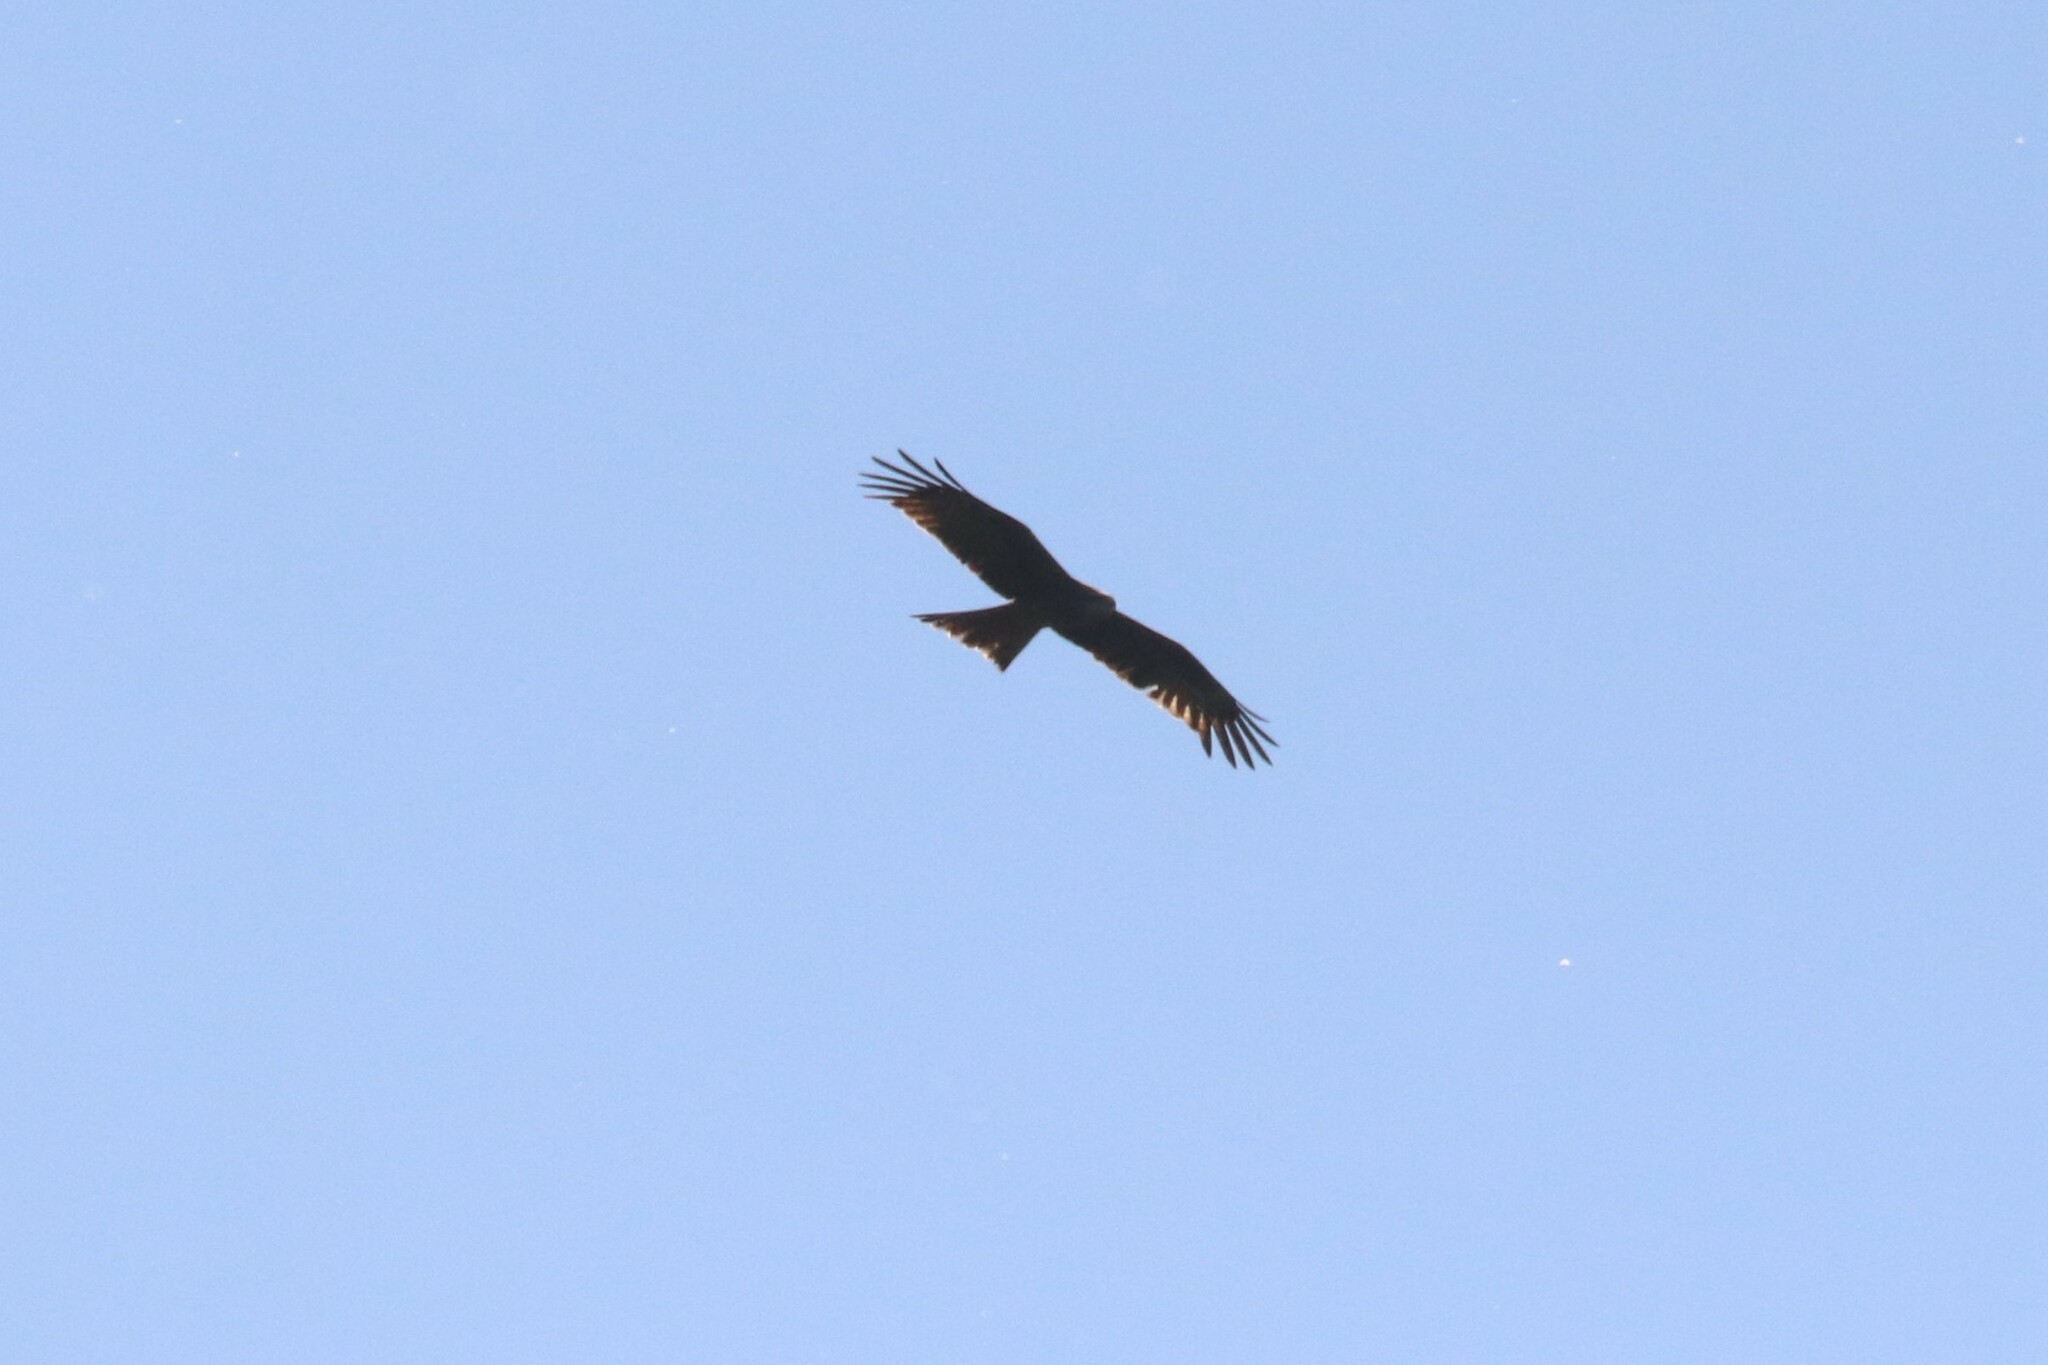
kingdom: Animalia
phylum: Chordata
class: Aves
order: Accipitriformes
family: Accipitridae
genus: Milvus
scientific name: Milvus migrans
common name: Black kite
